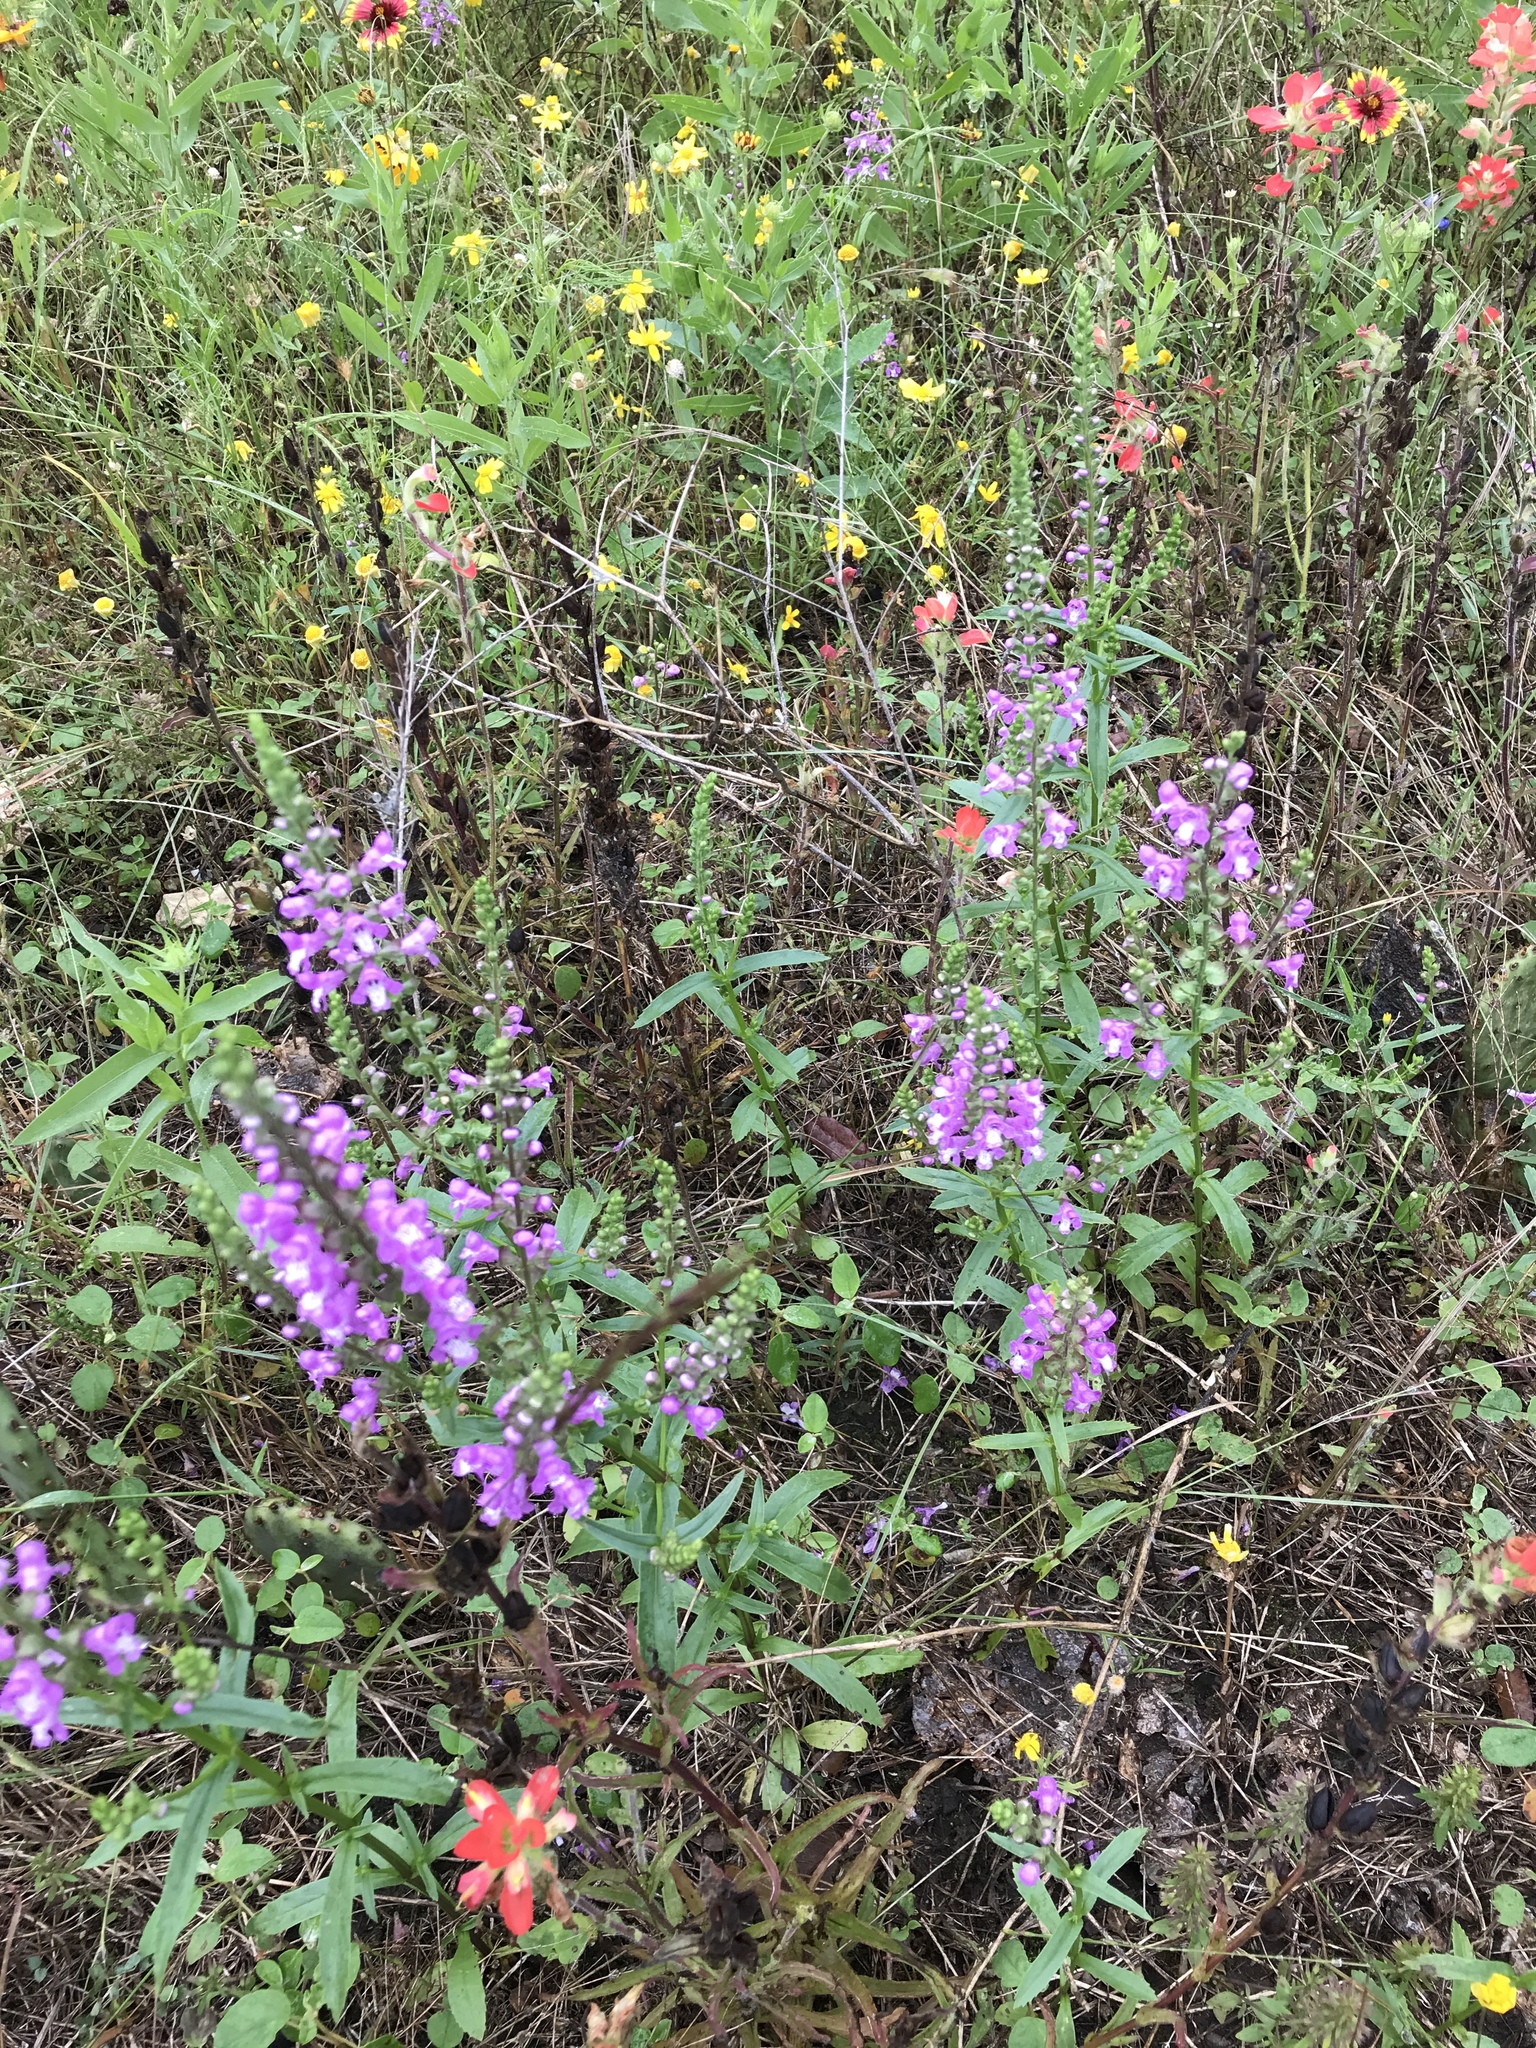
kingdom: Plantae
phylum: Tracheophyta
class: Magnoliopsida
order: Lamiales
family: Lamiaceae
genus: Warnockia
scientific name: Warnockia scutellarioides
